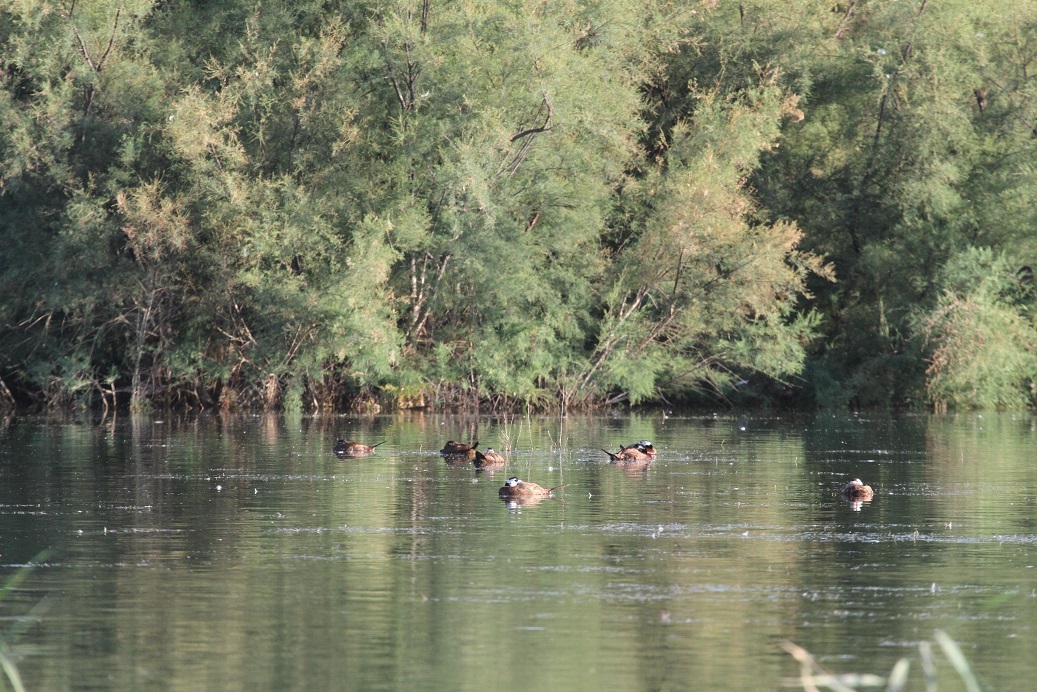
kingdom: Animalia
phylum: Chordata
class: Aves
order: Anseriformes
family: Anatidae
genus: Oxyura
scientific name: Oxyura leucocephala
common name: White-headed duck
